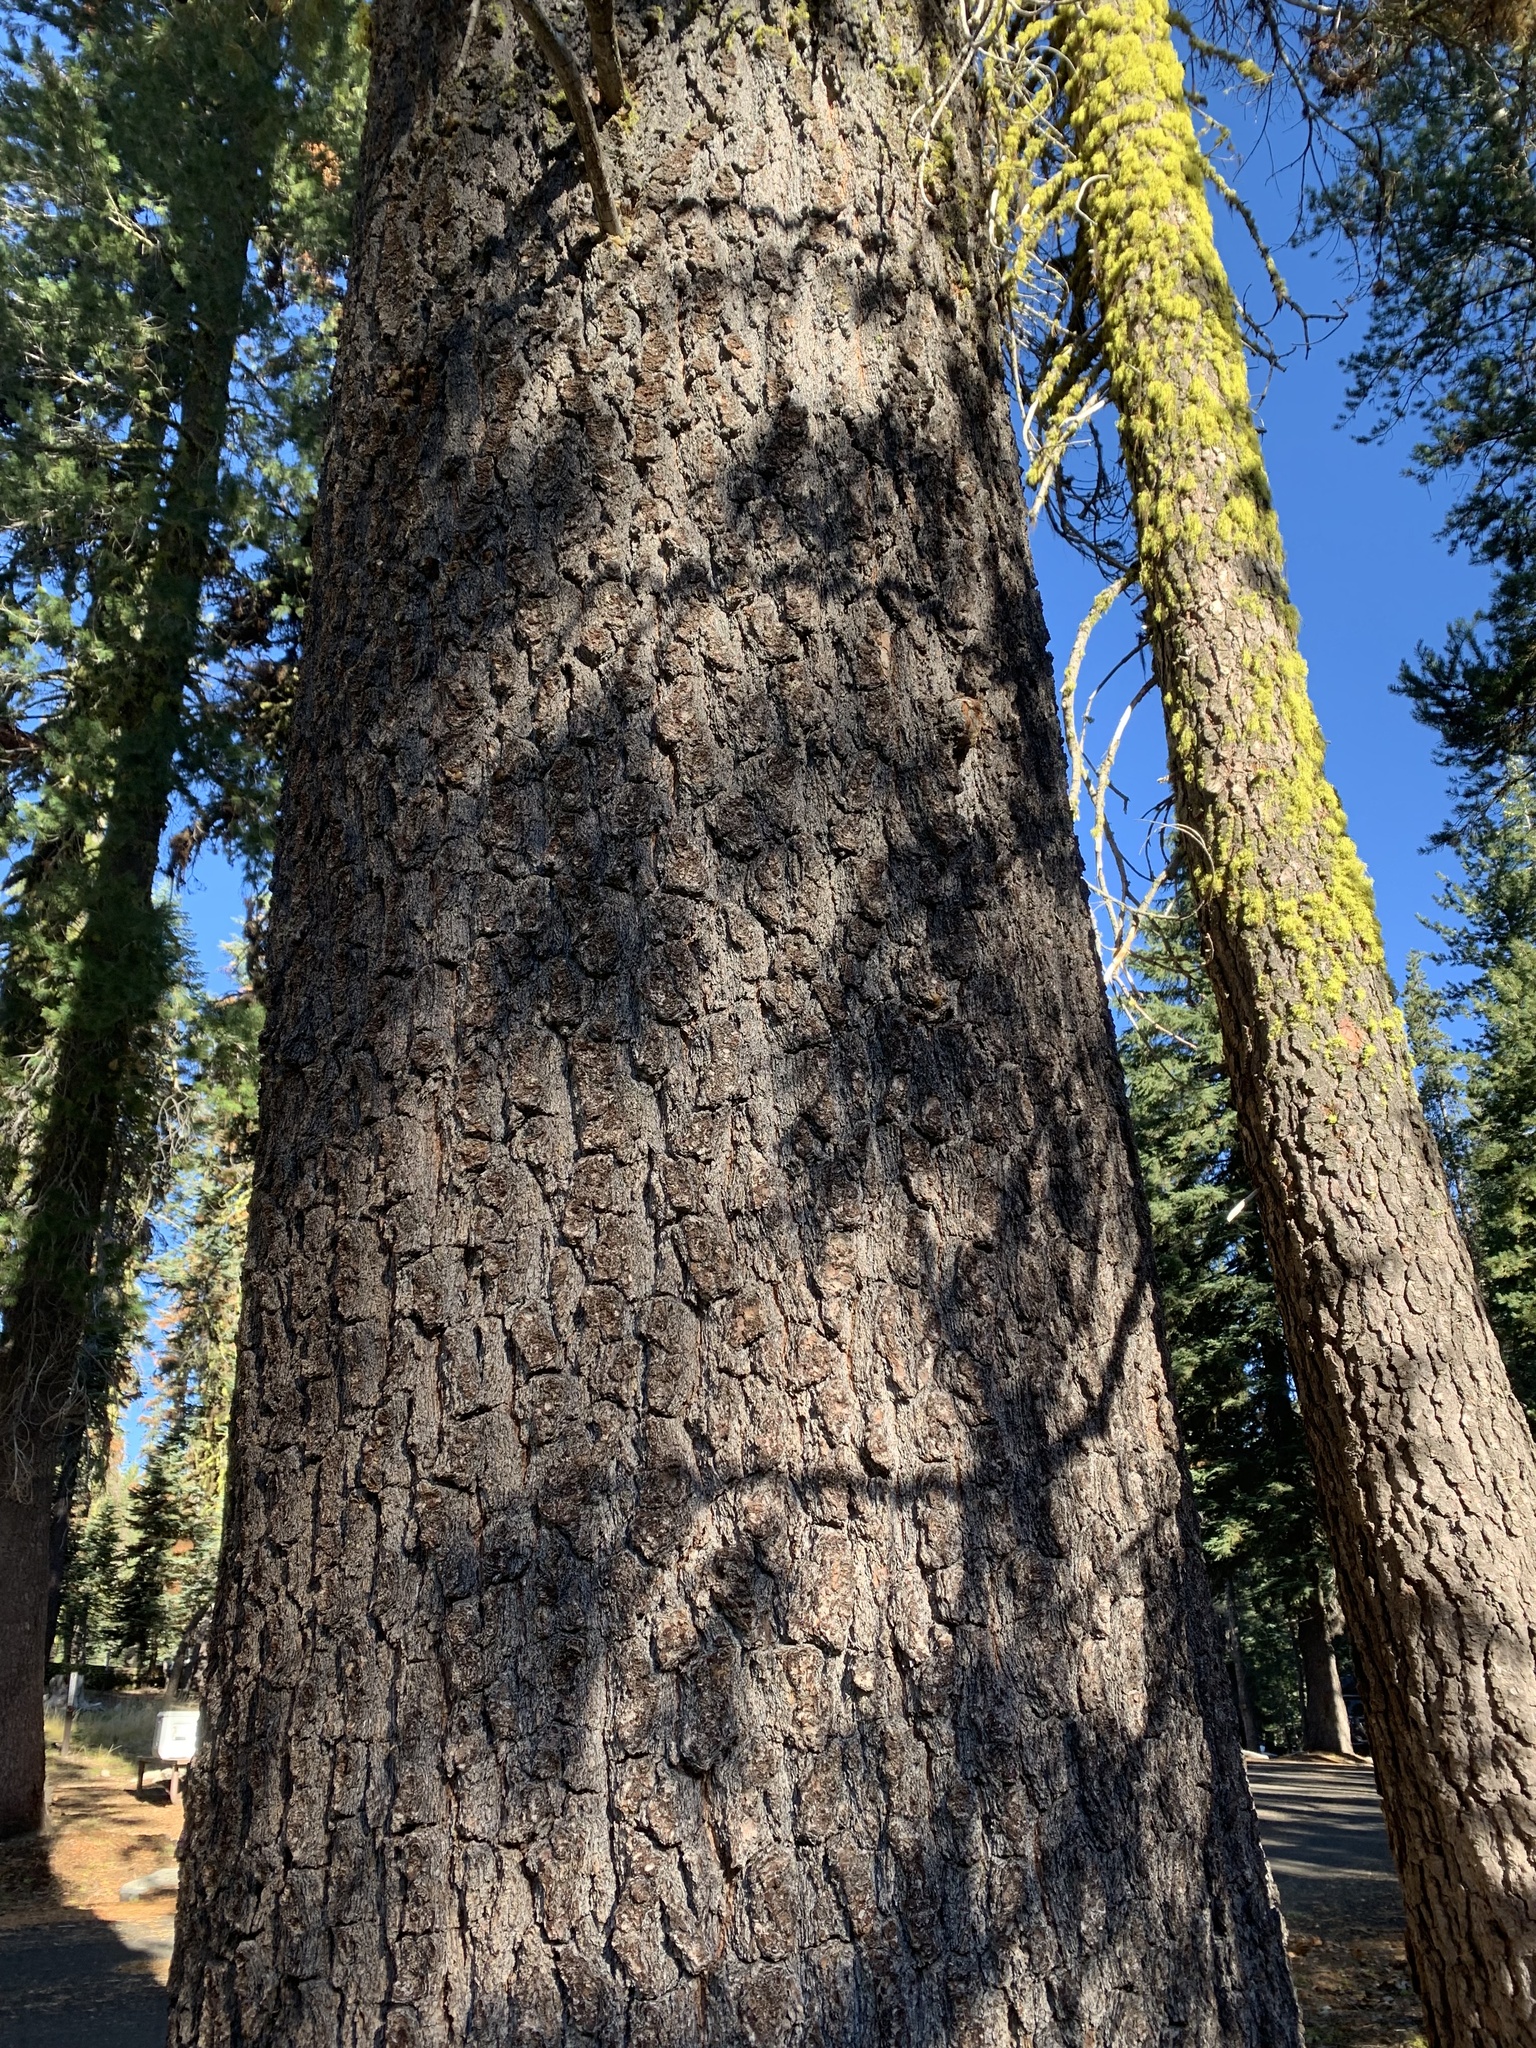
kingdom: Plantae
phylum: Tracheophyta
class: Pinopsida
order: Pinales
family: Pinaceae
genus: Abies
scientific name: Abies magnifica bis
